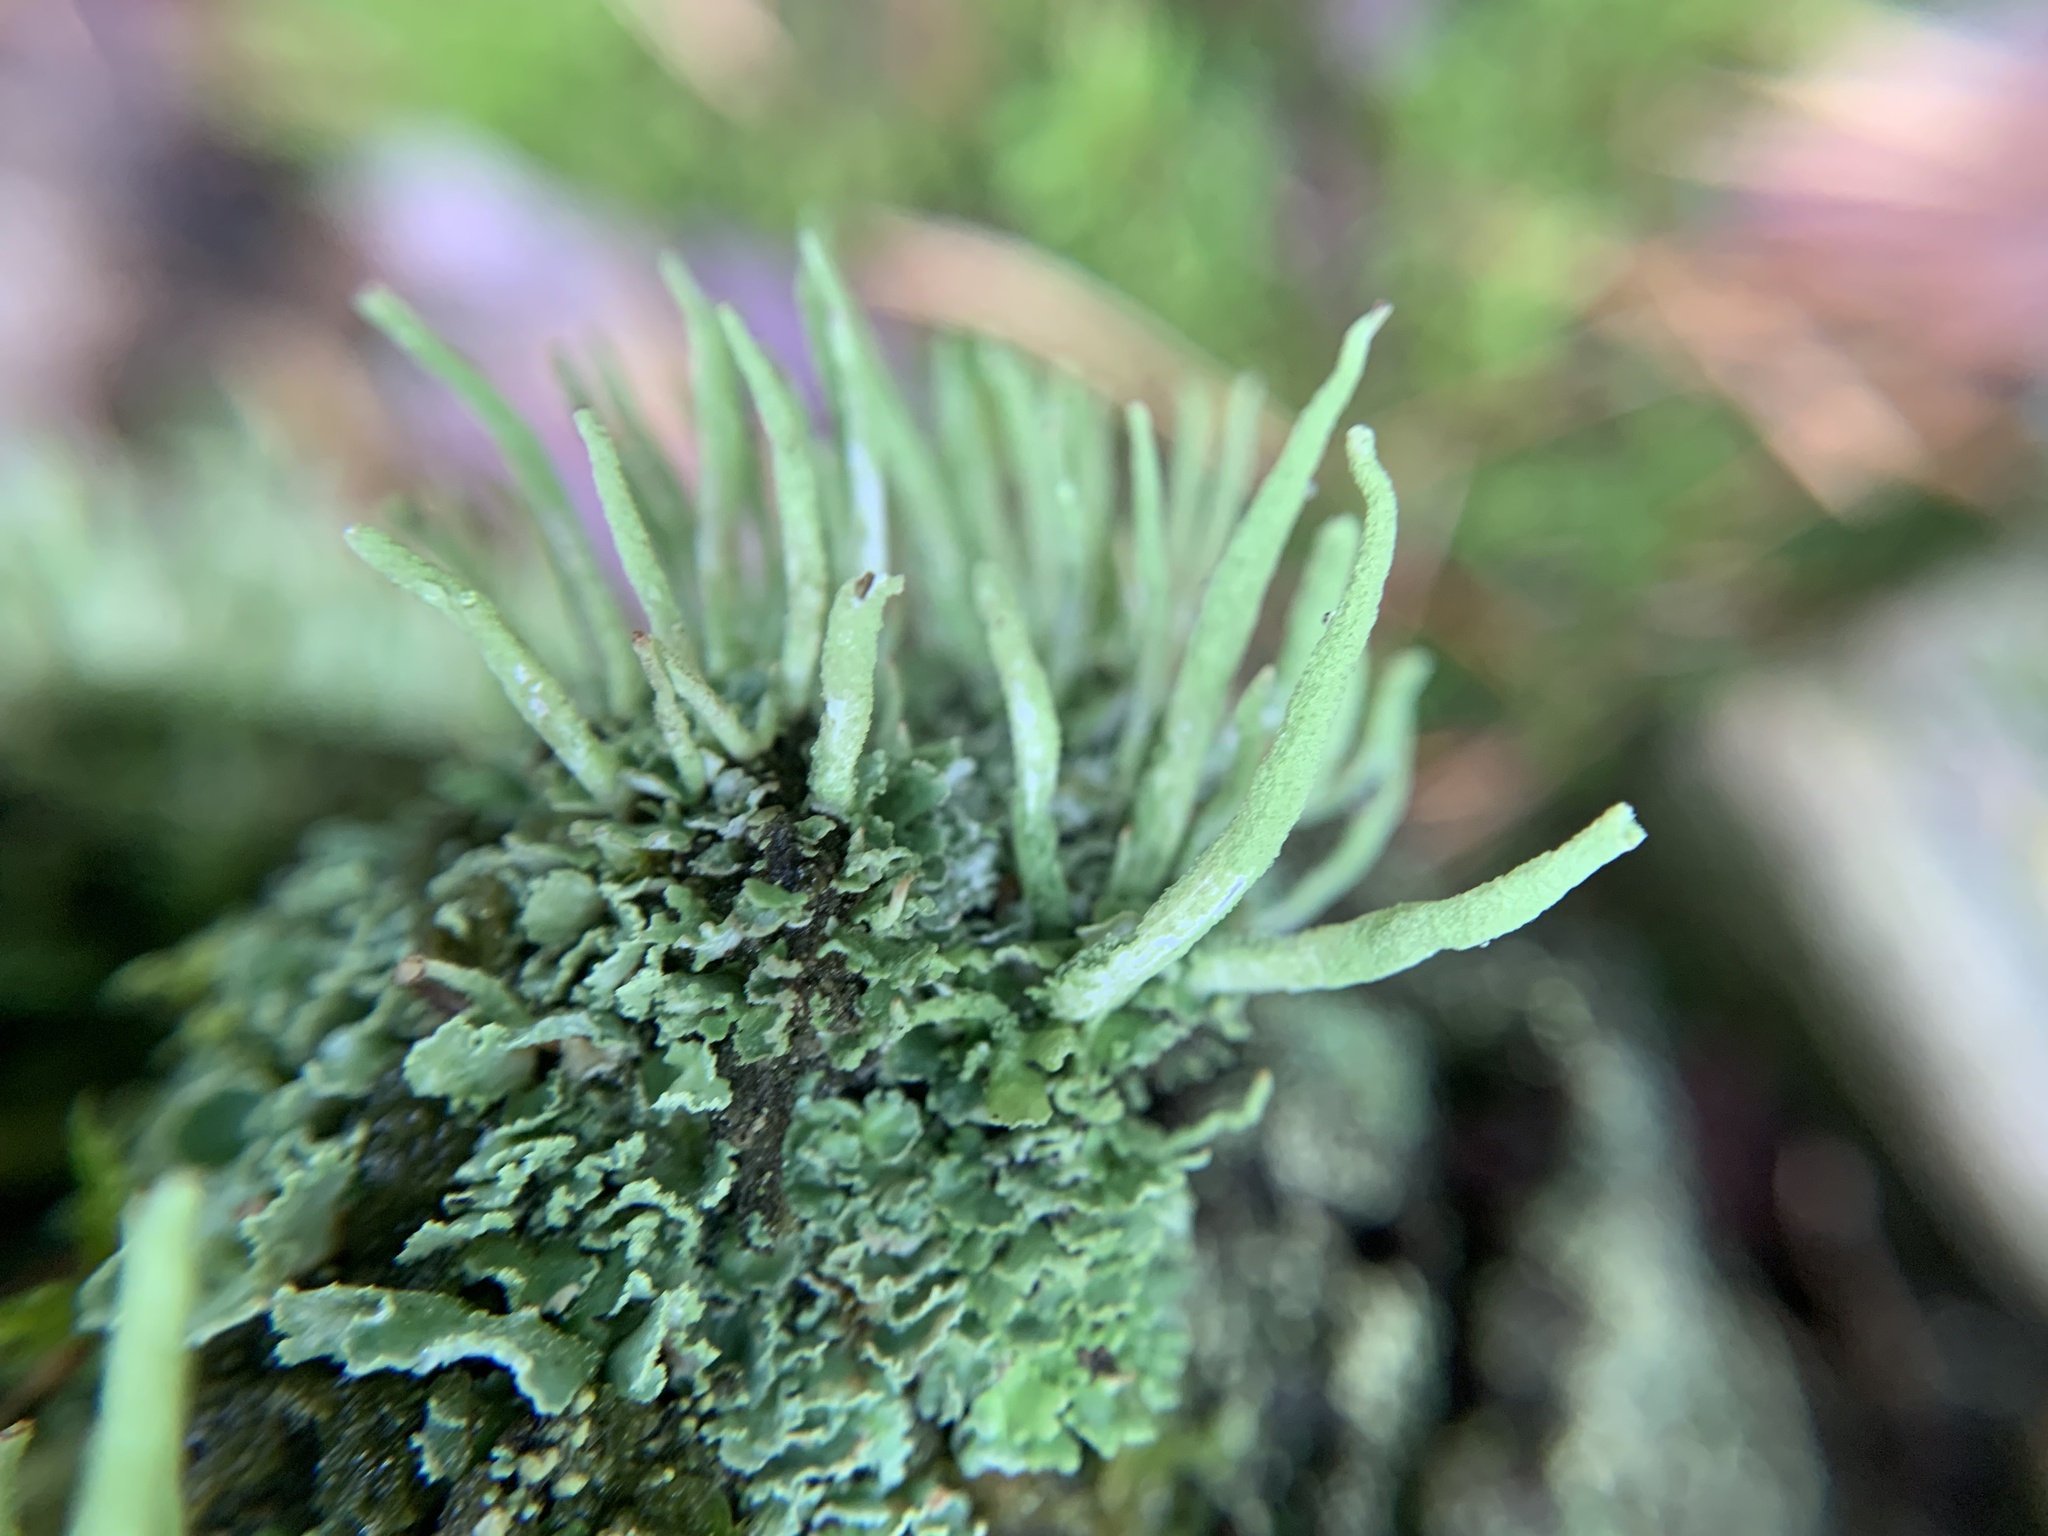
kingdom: Fungi
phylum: Ascomycota
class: Lecanoromycetes
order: Lecanorales
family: Cladoniaceae
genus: Cladonia
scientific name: Cladonia coniocraea
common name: Common powderhorn
